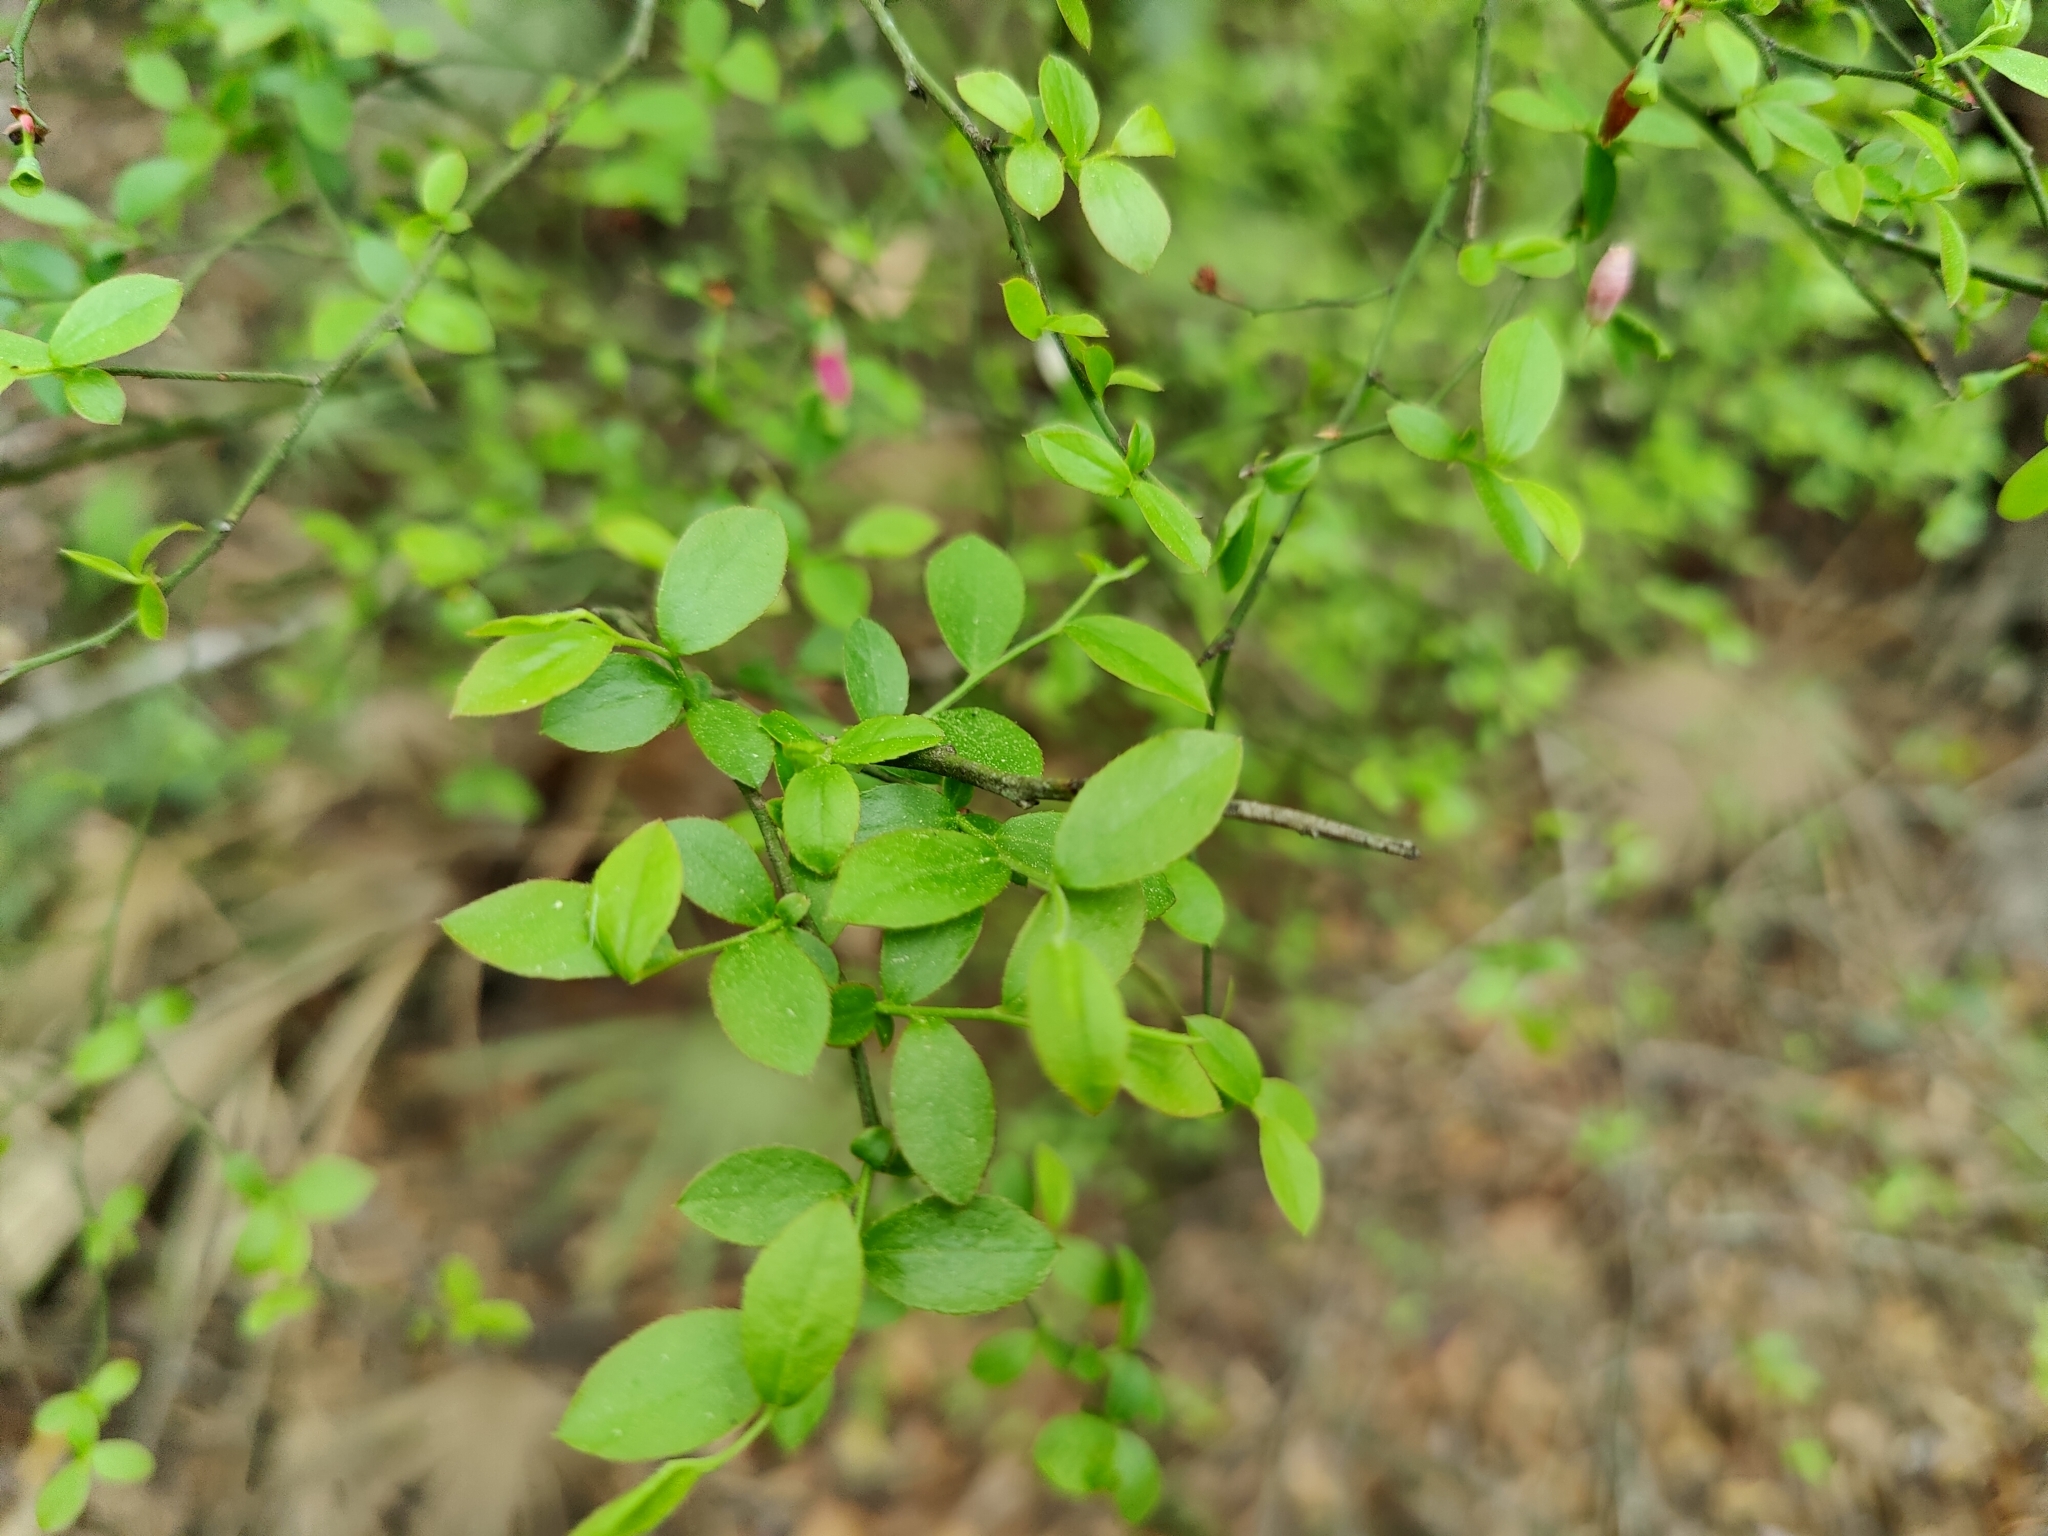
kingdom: Plantae
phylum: Tracheophyta
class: Magnoliopsida
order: Ericales
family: Ericaceae
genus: Vaccinium
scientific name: Vaccinium corymbosum
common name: Blueberry
